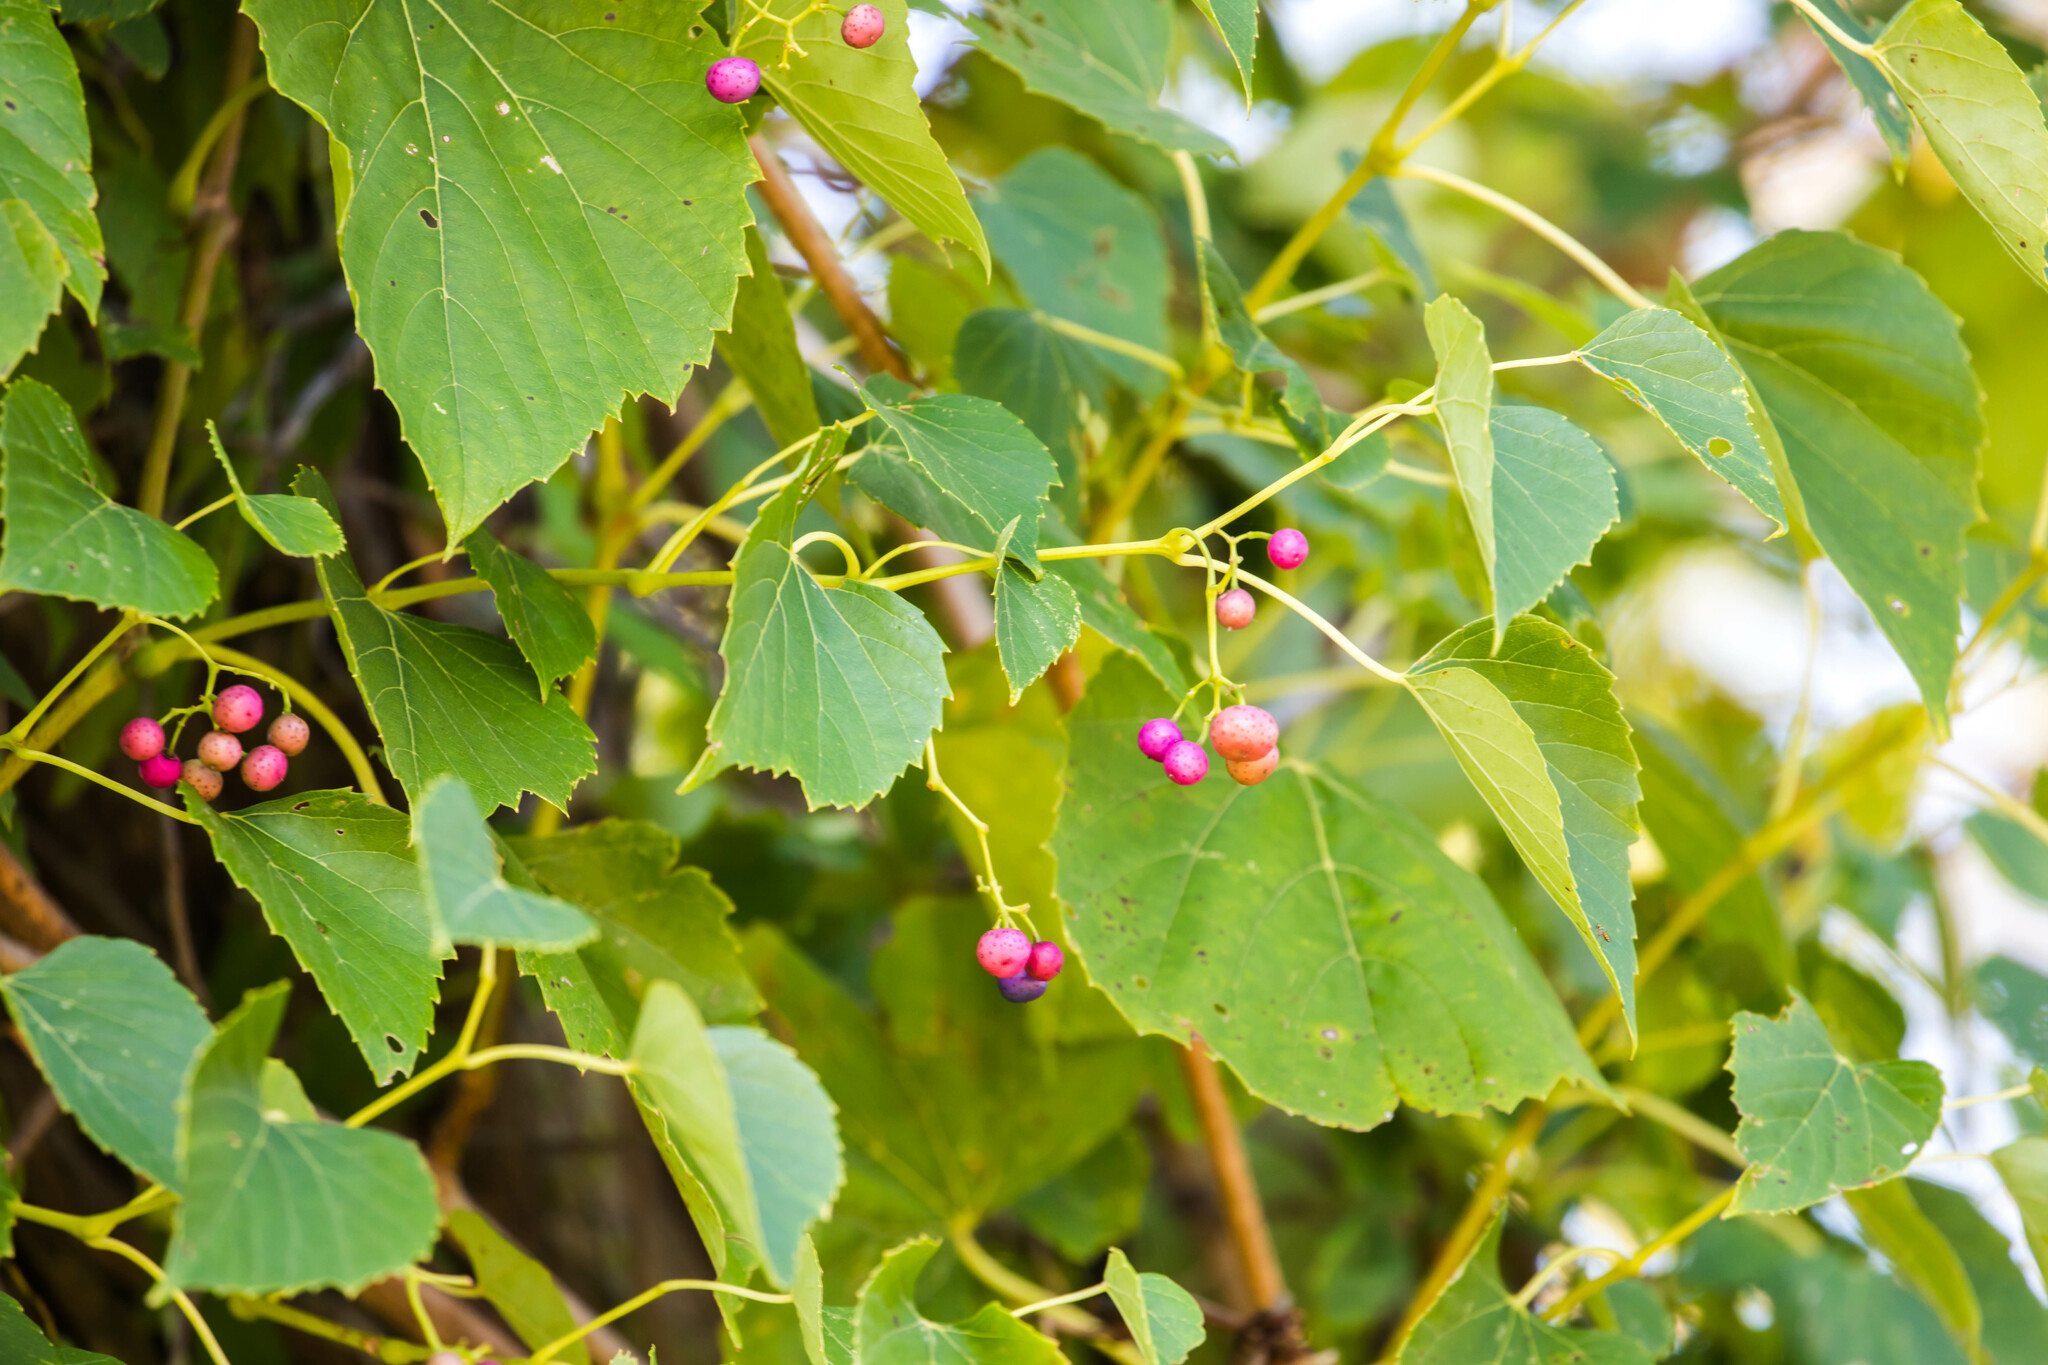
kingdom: Plantae
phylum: Tracheophyta
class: Magnoliopsida
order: Vitales
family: Vitaceae
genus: Ampelopsis
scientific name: Ampelopsis cordata
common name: Heart-leaf ampelopsis
